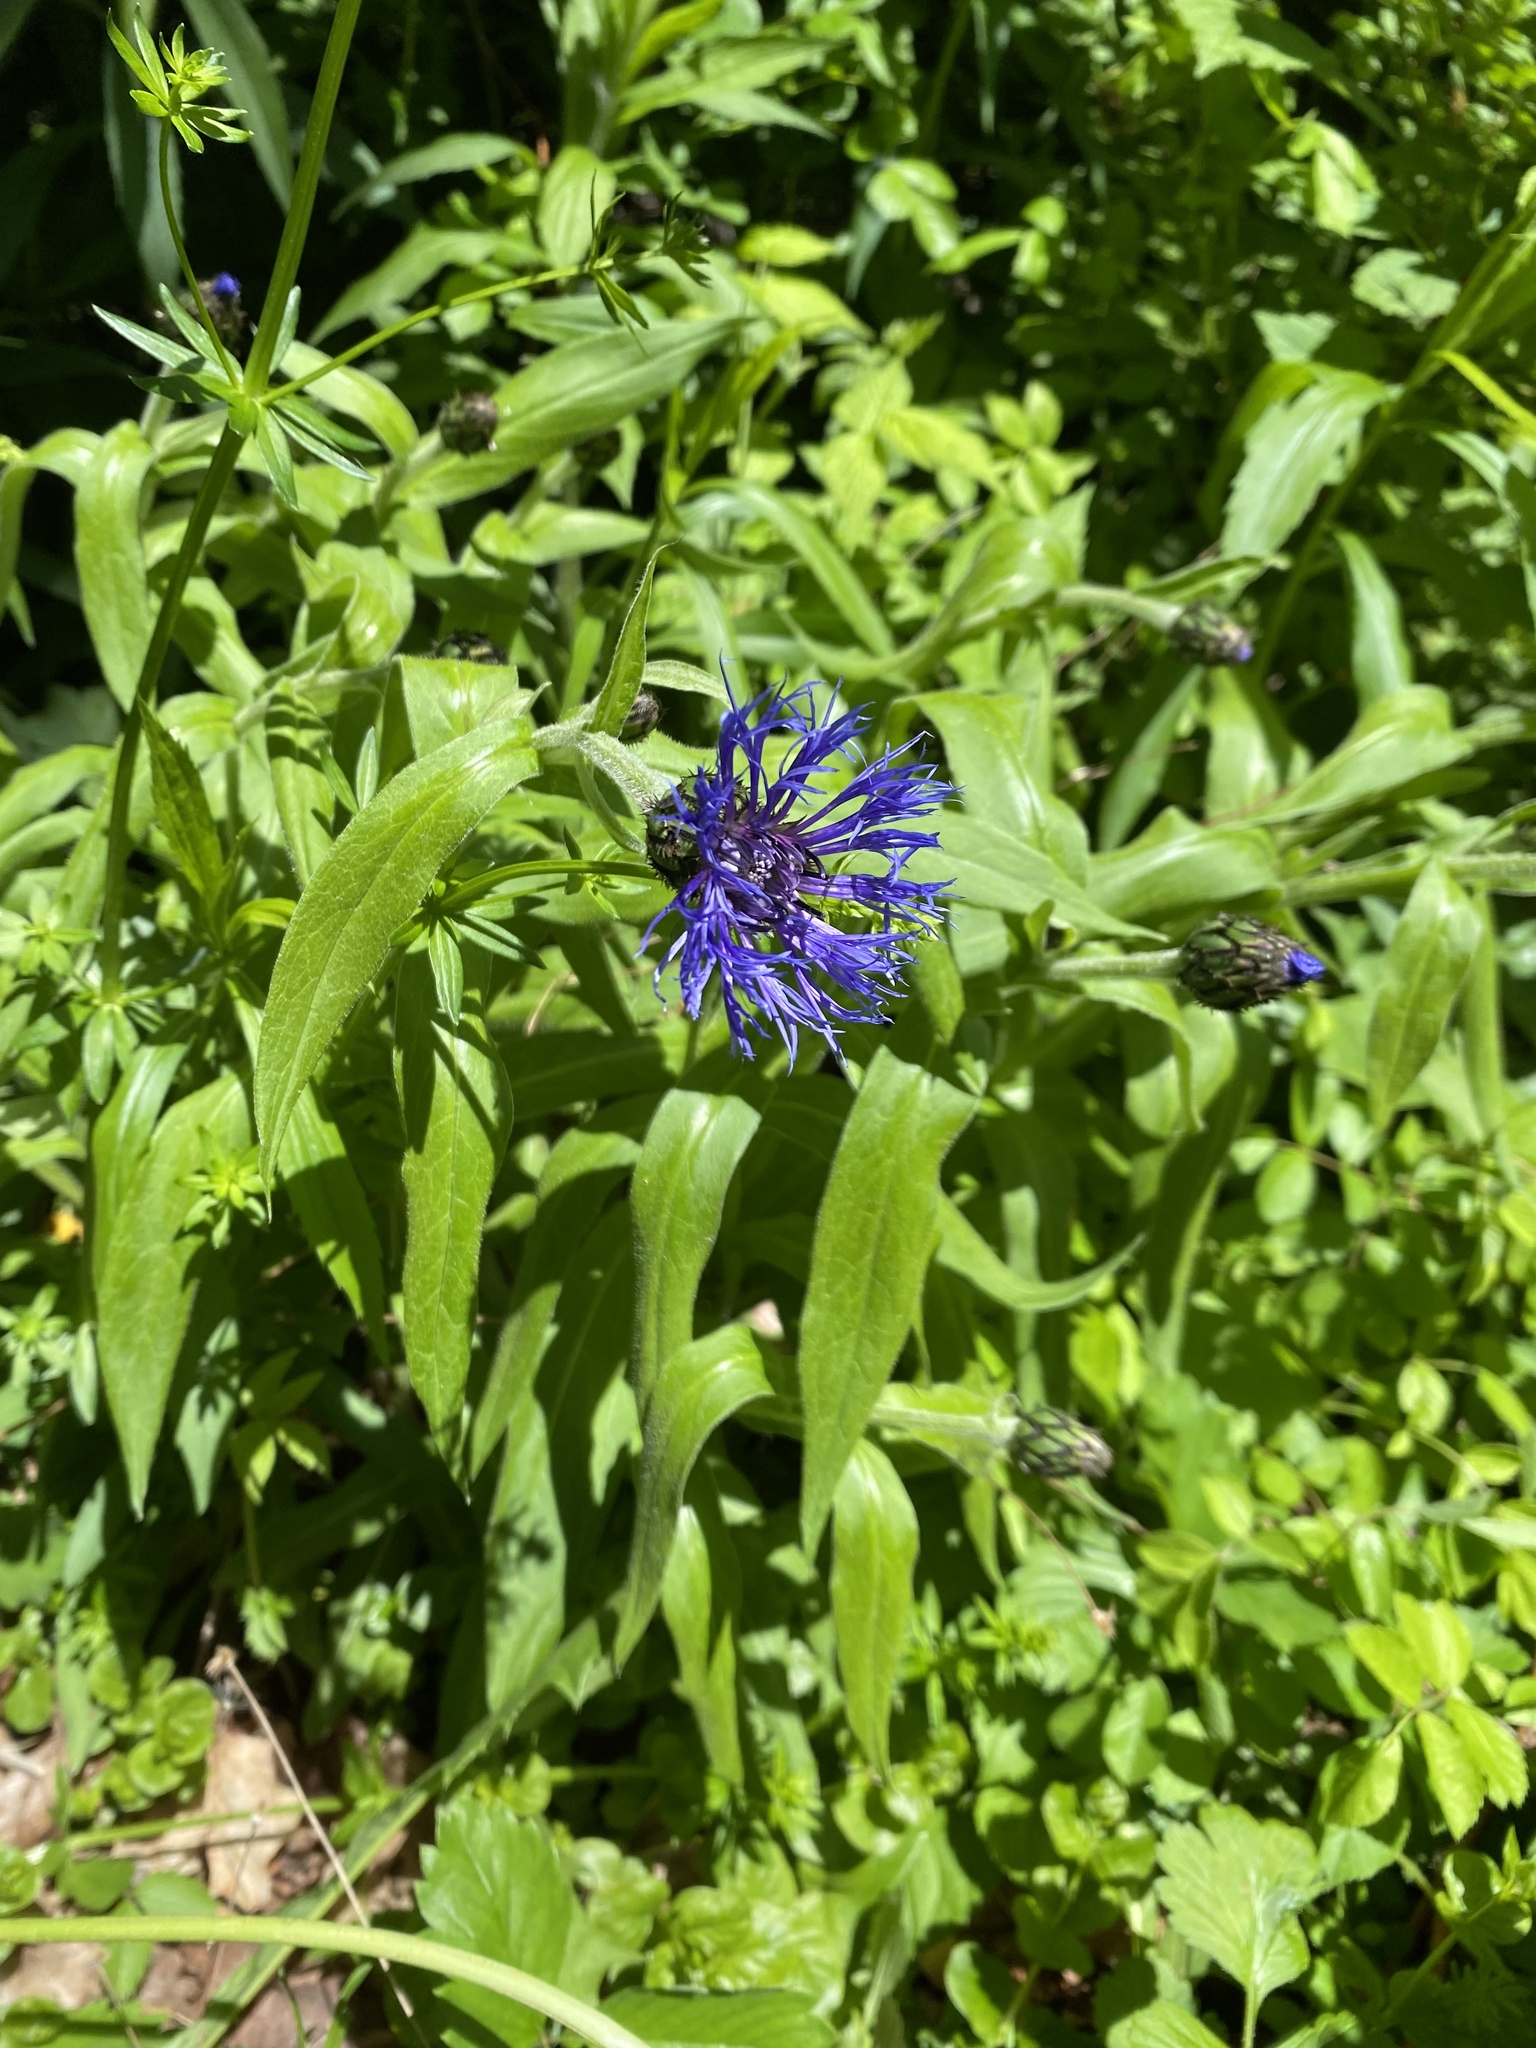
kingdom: Plantae
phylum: Tracheophyta
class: Magnoliopsida
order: Asterales
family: Asteraceae
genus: Centaurea
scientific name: Centaurea montana
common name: Perennial cornflower
